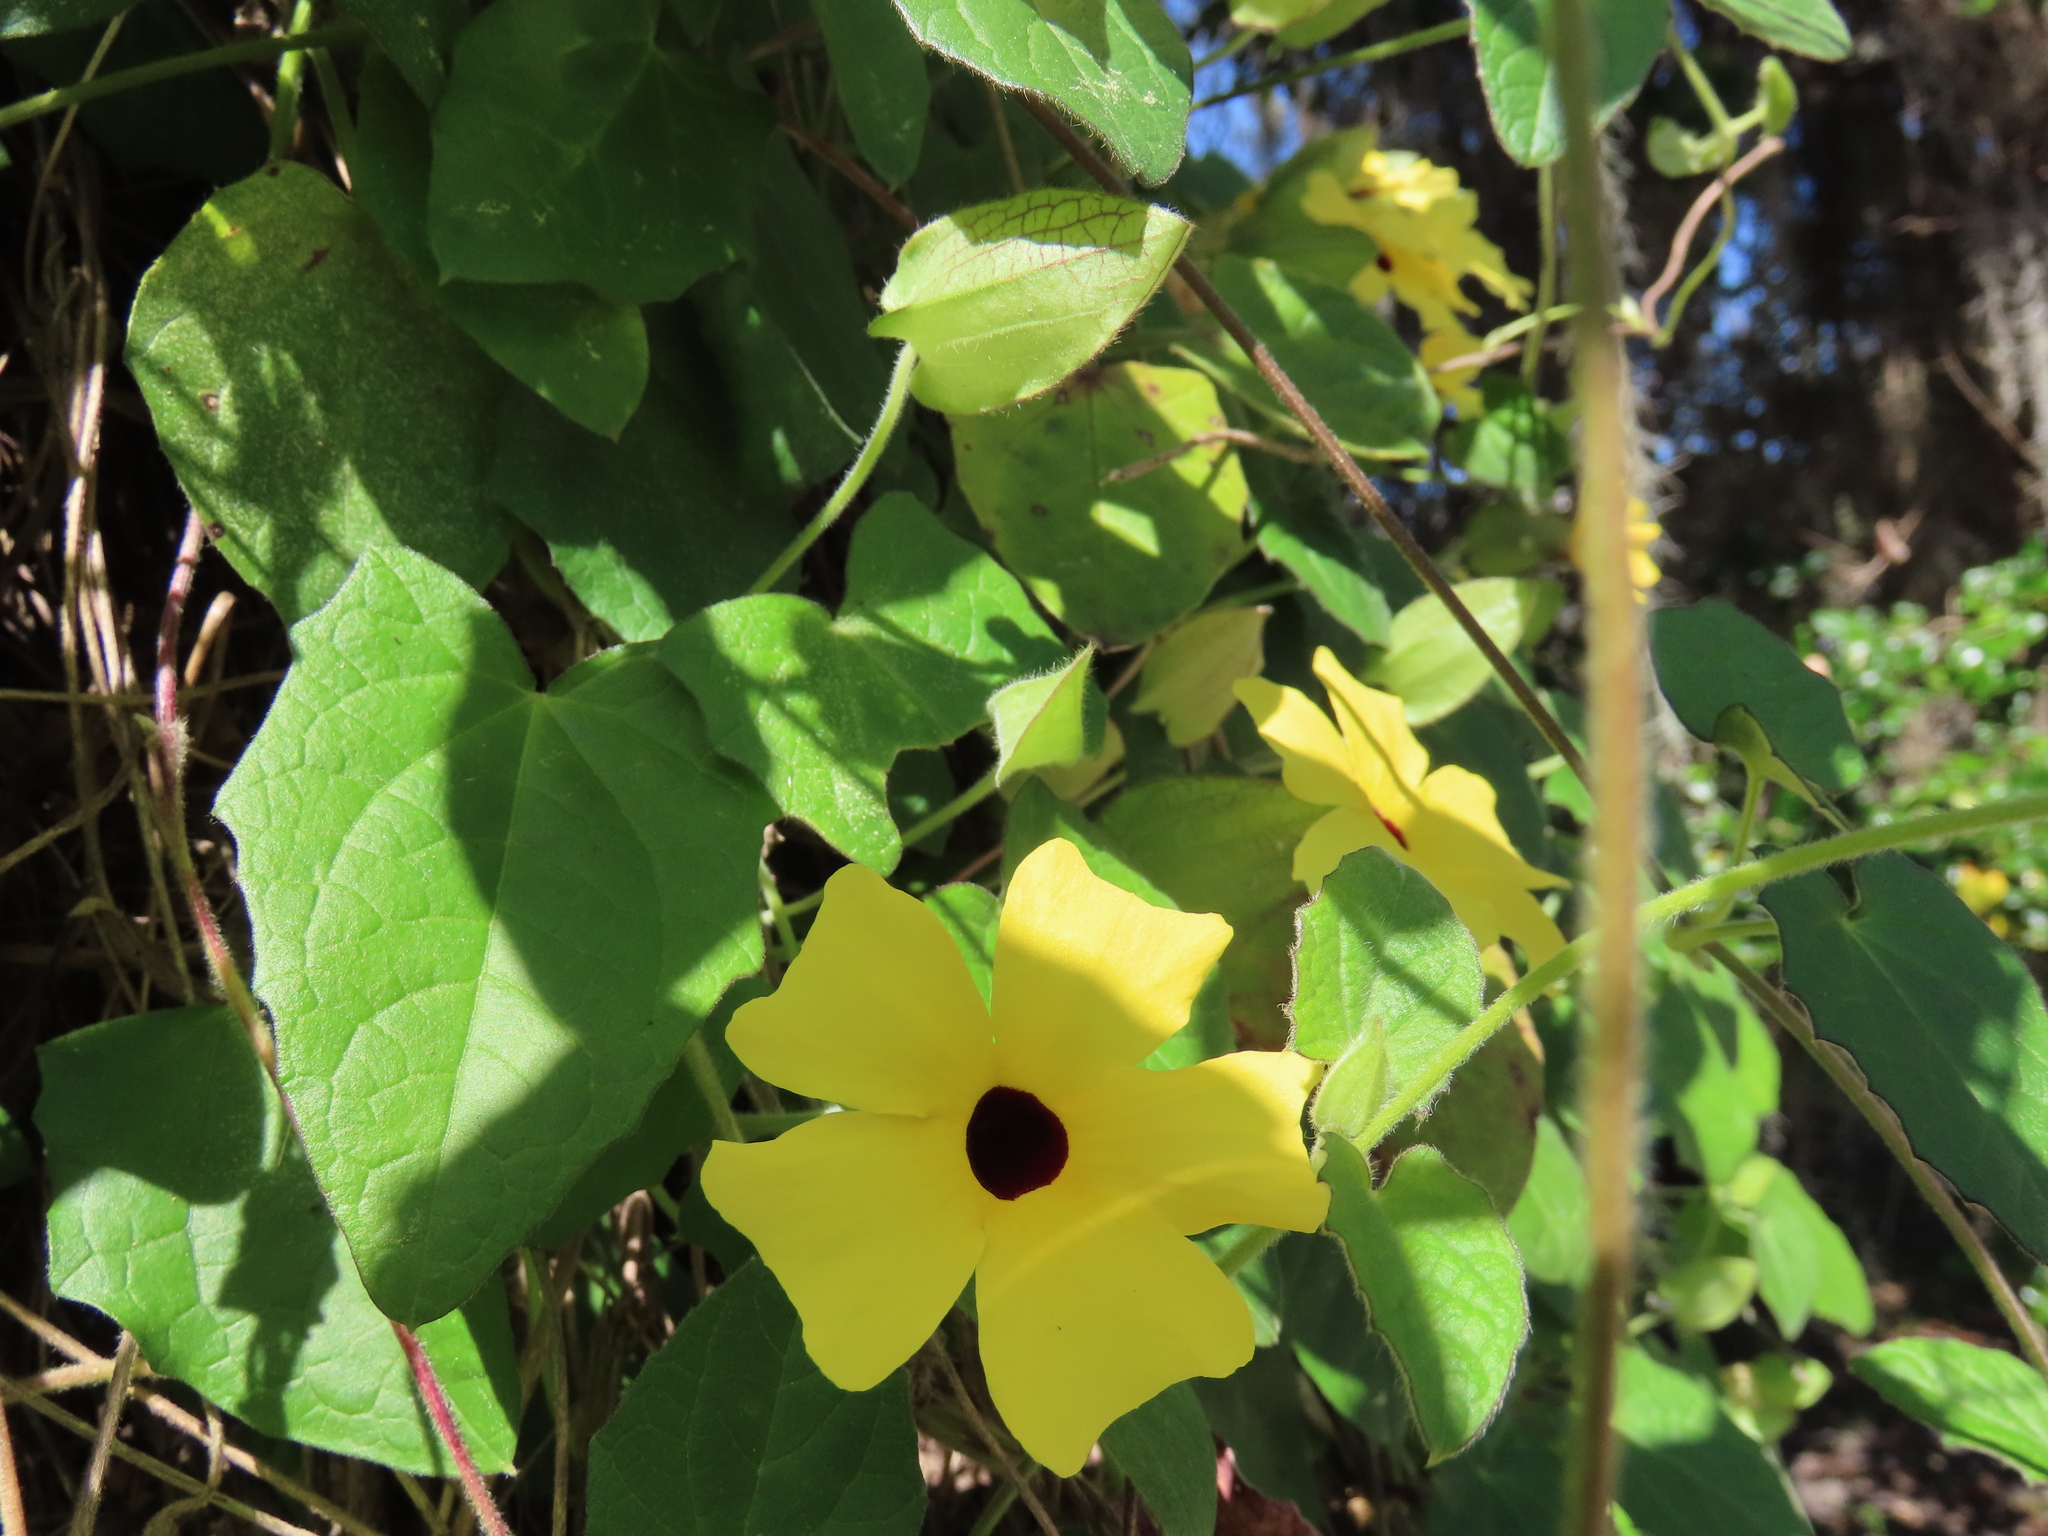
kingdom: Plantae
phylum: Tracheophyta
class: Magnoliopsida
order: Lamiales
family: Acanthaceae
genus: Thunbergia
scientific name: Thunbergia alata
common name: Blackeyed susan vine
